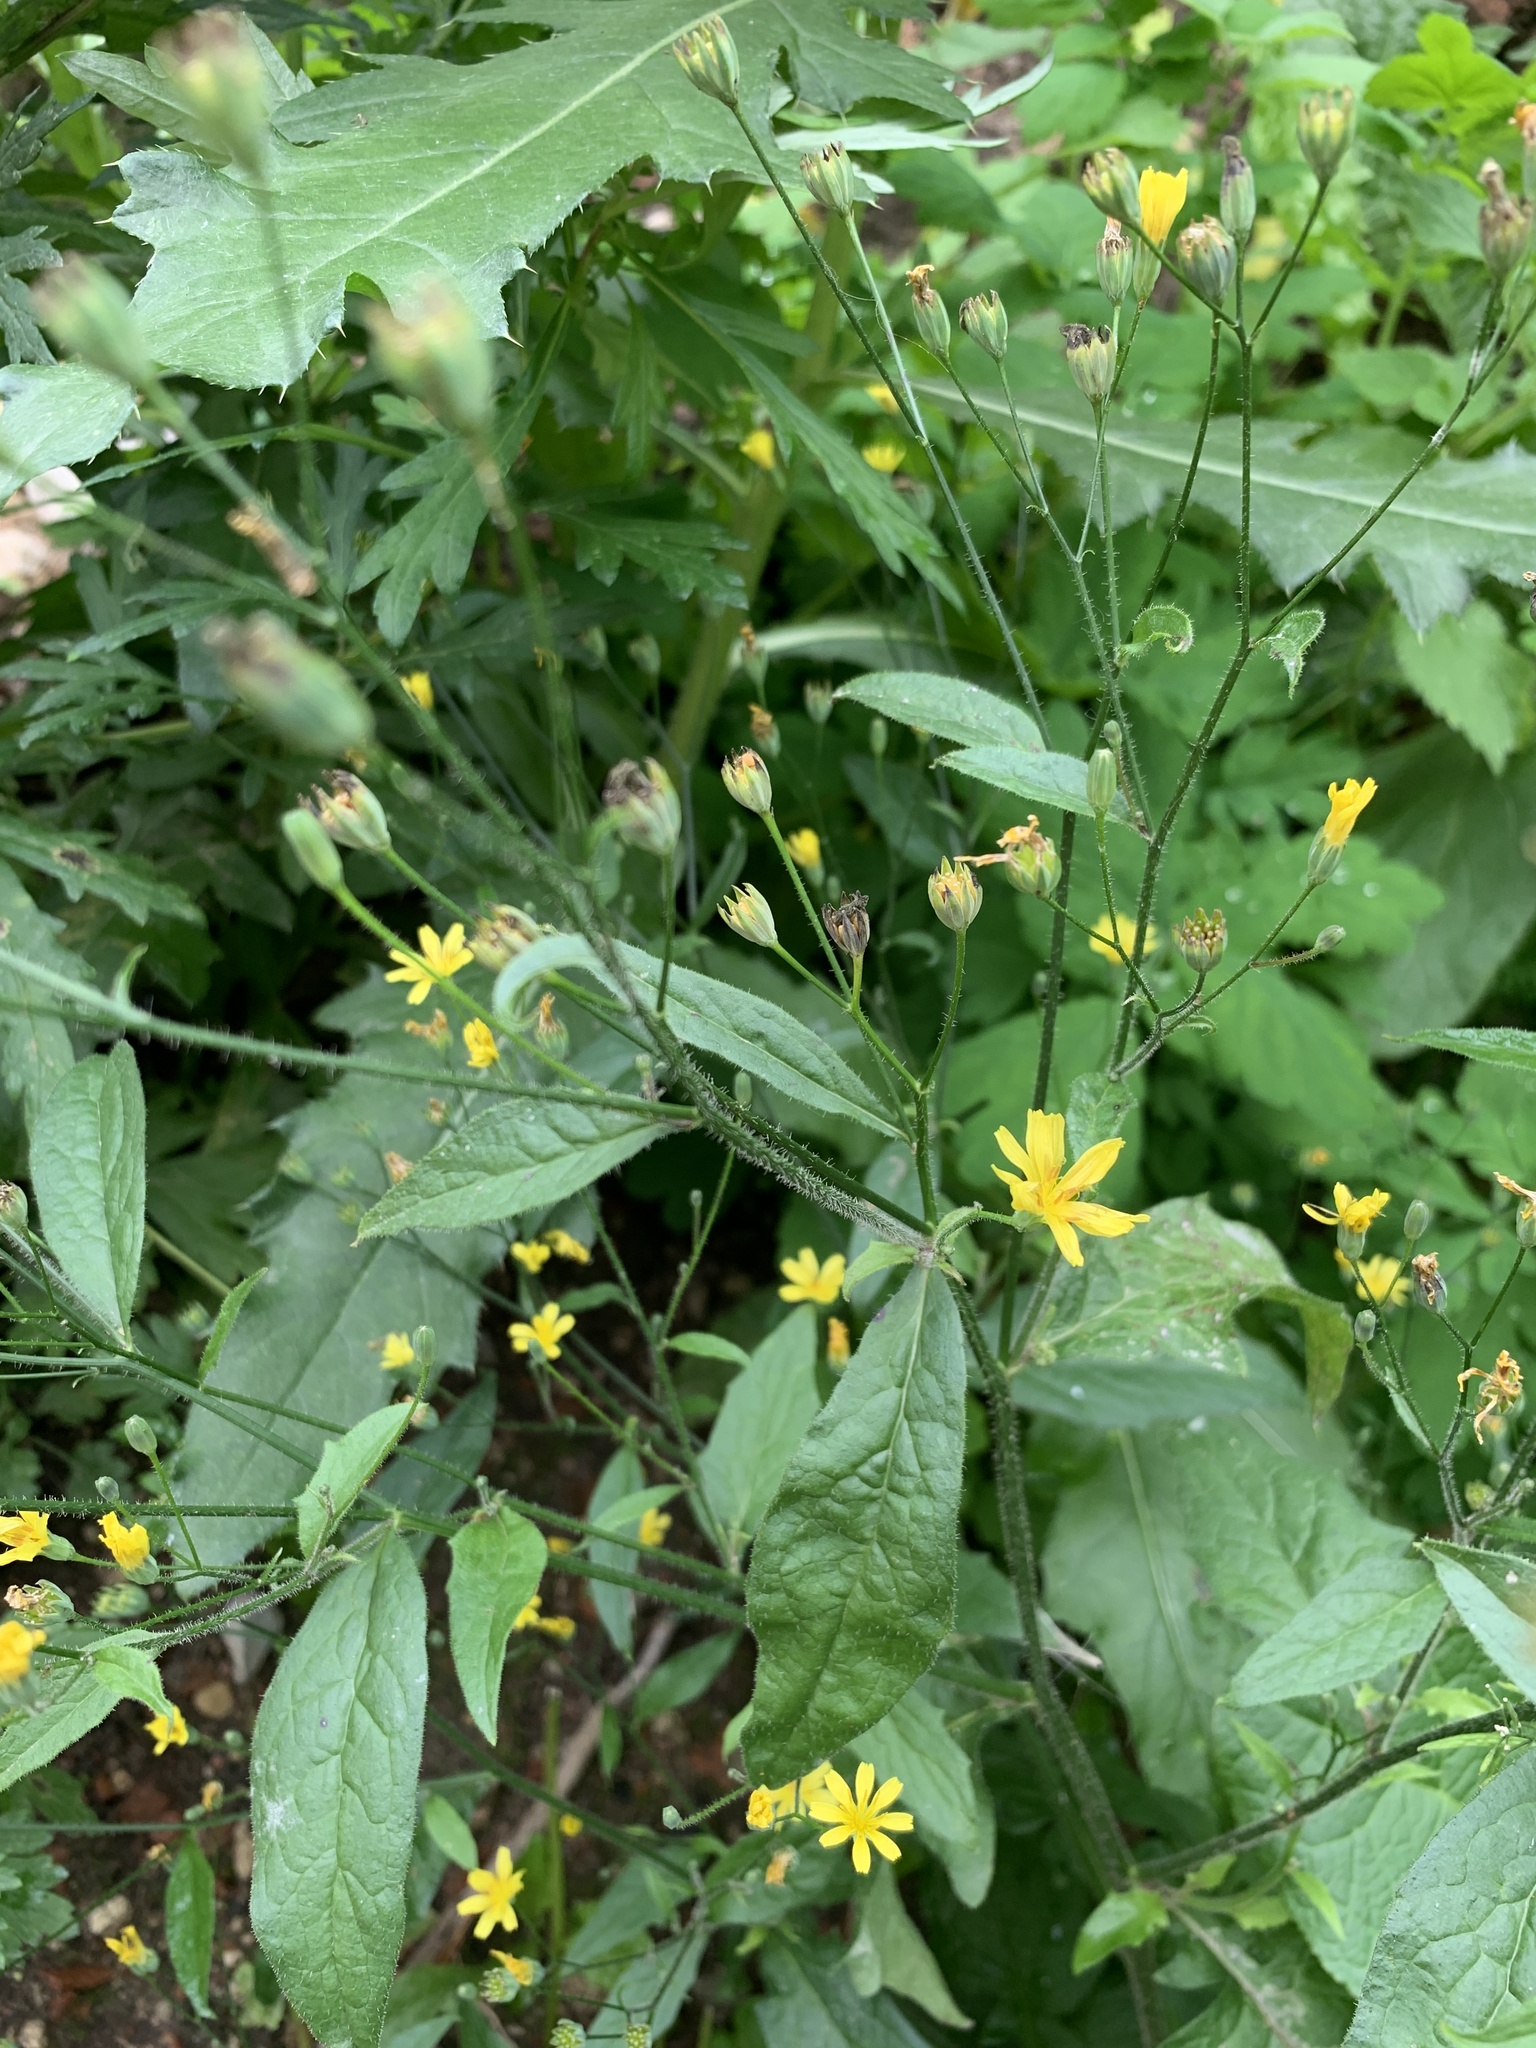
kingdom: Plantae
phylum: Tracheophyta
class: Magnoliopsida
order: Asterales
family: Asteraceae
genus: Lapsana
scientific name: Lapsana communis
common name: Nipplewort
